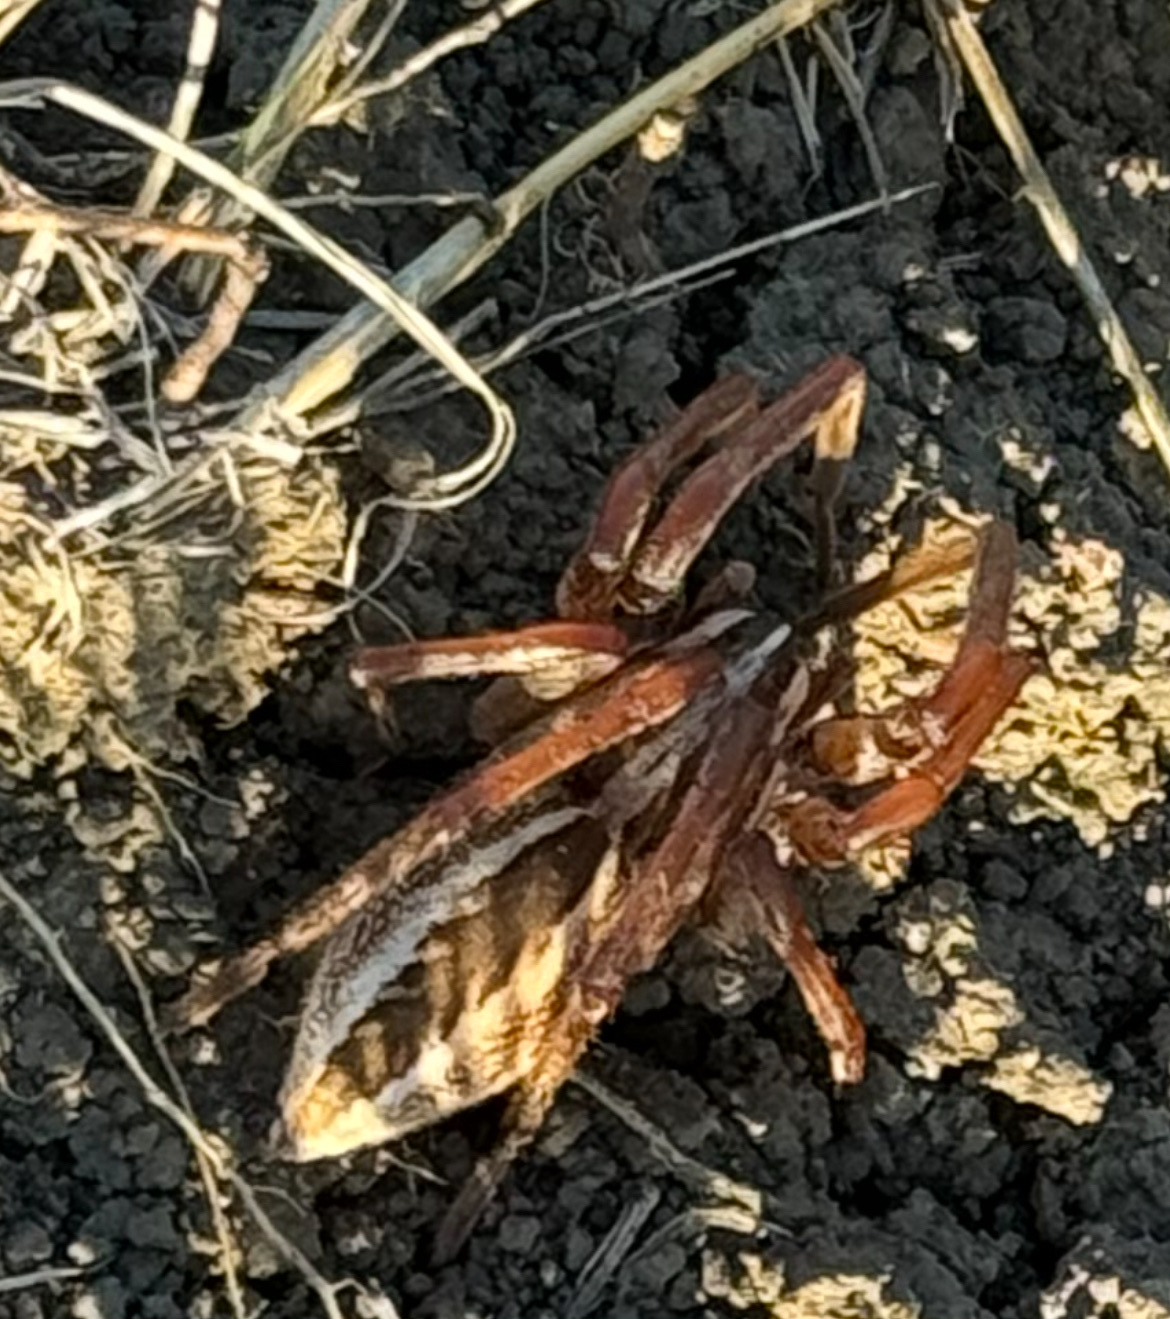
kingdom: Animalia
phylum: Arthropoda
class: Arachnida
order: Araneae
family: Lycosidae
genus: Rabidosa
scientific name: Rabidosa rabida
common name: Rabid wolf spider
